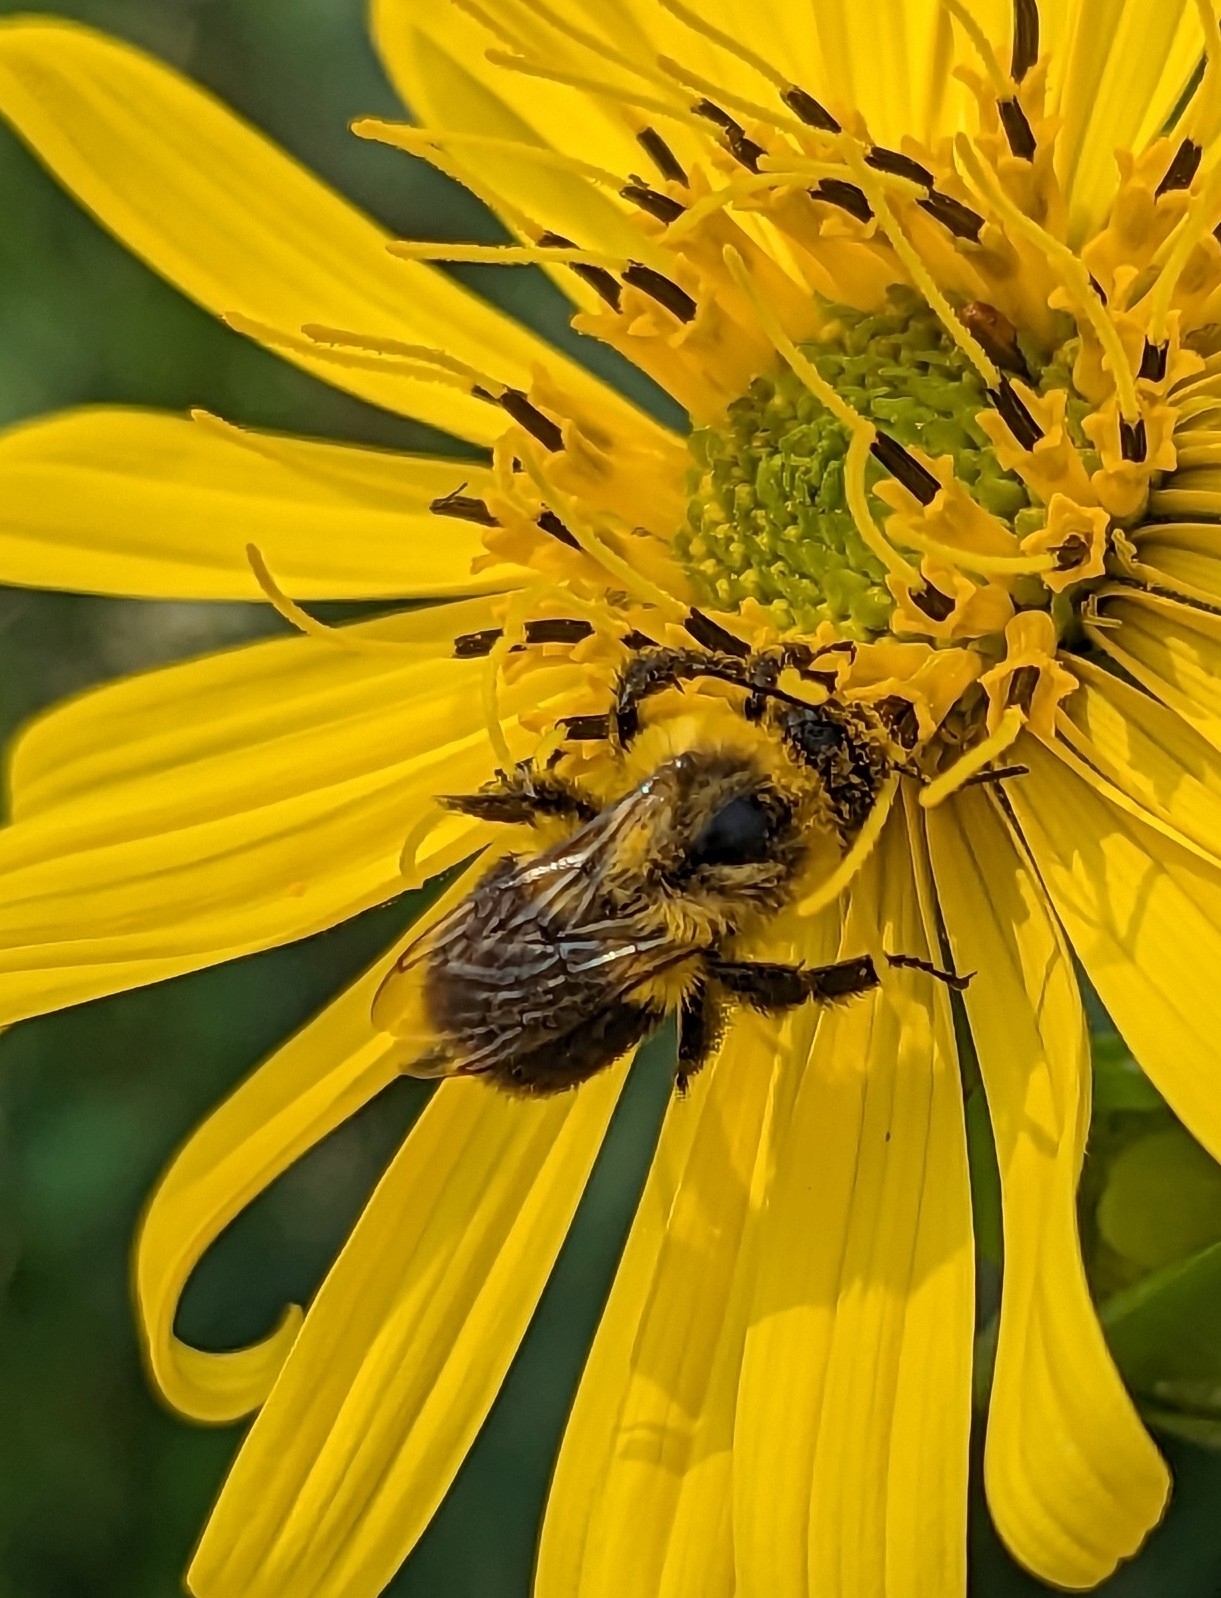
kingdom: Animalia
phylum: Arthropoda
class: Insecta
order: Hymenoptera
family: Apidae
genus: Bombus
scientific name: Bombus impatiens
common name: Common eastern bumble bee
